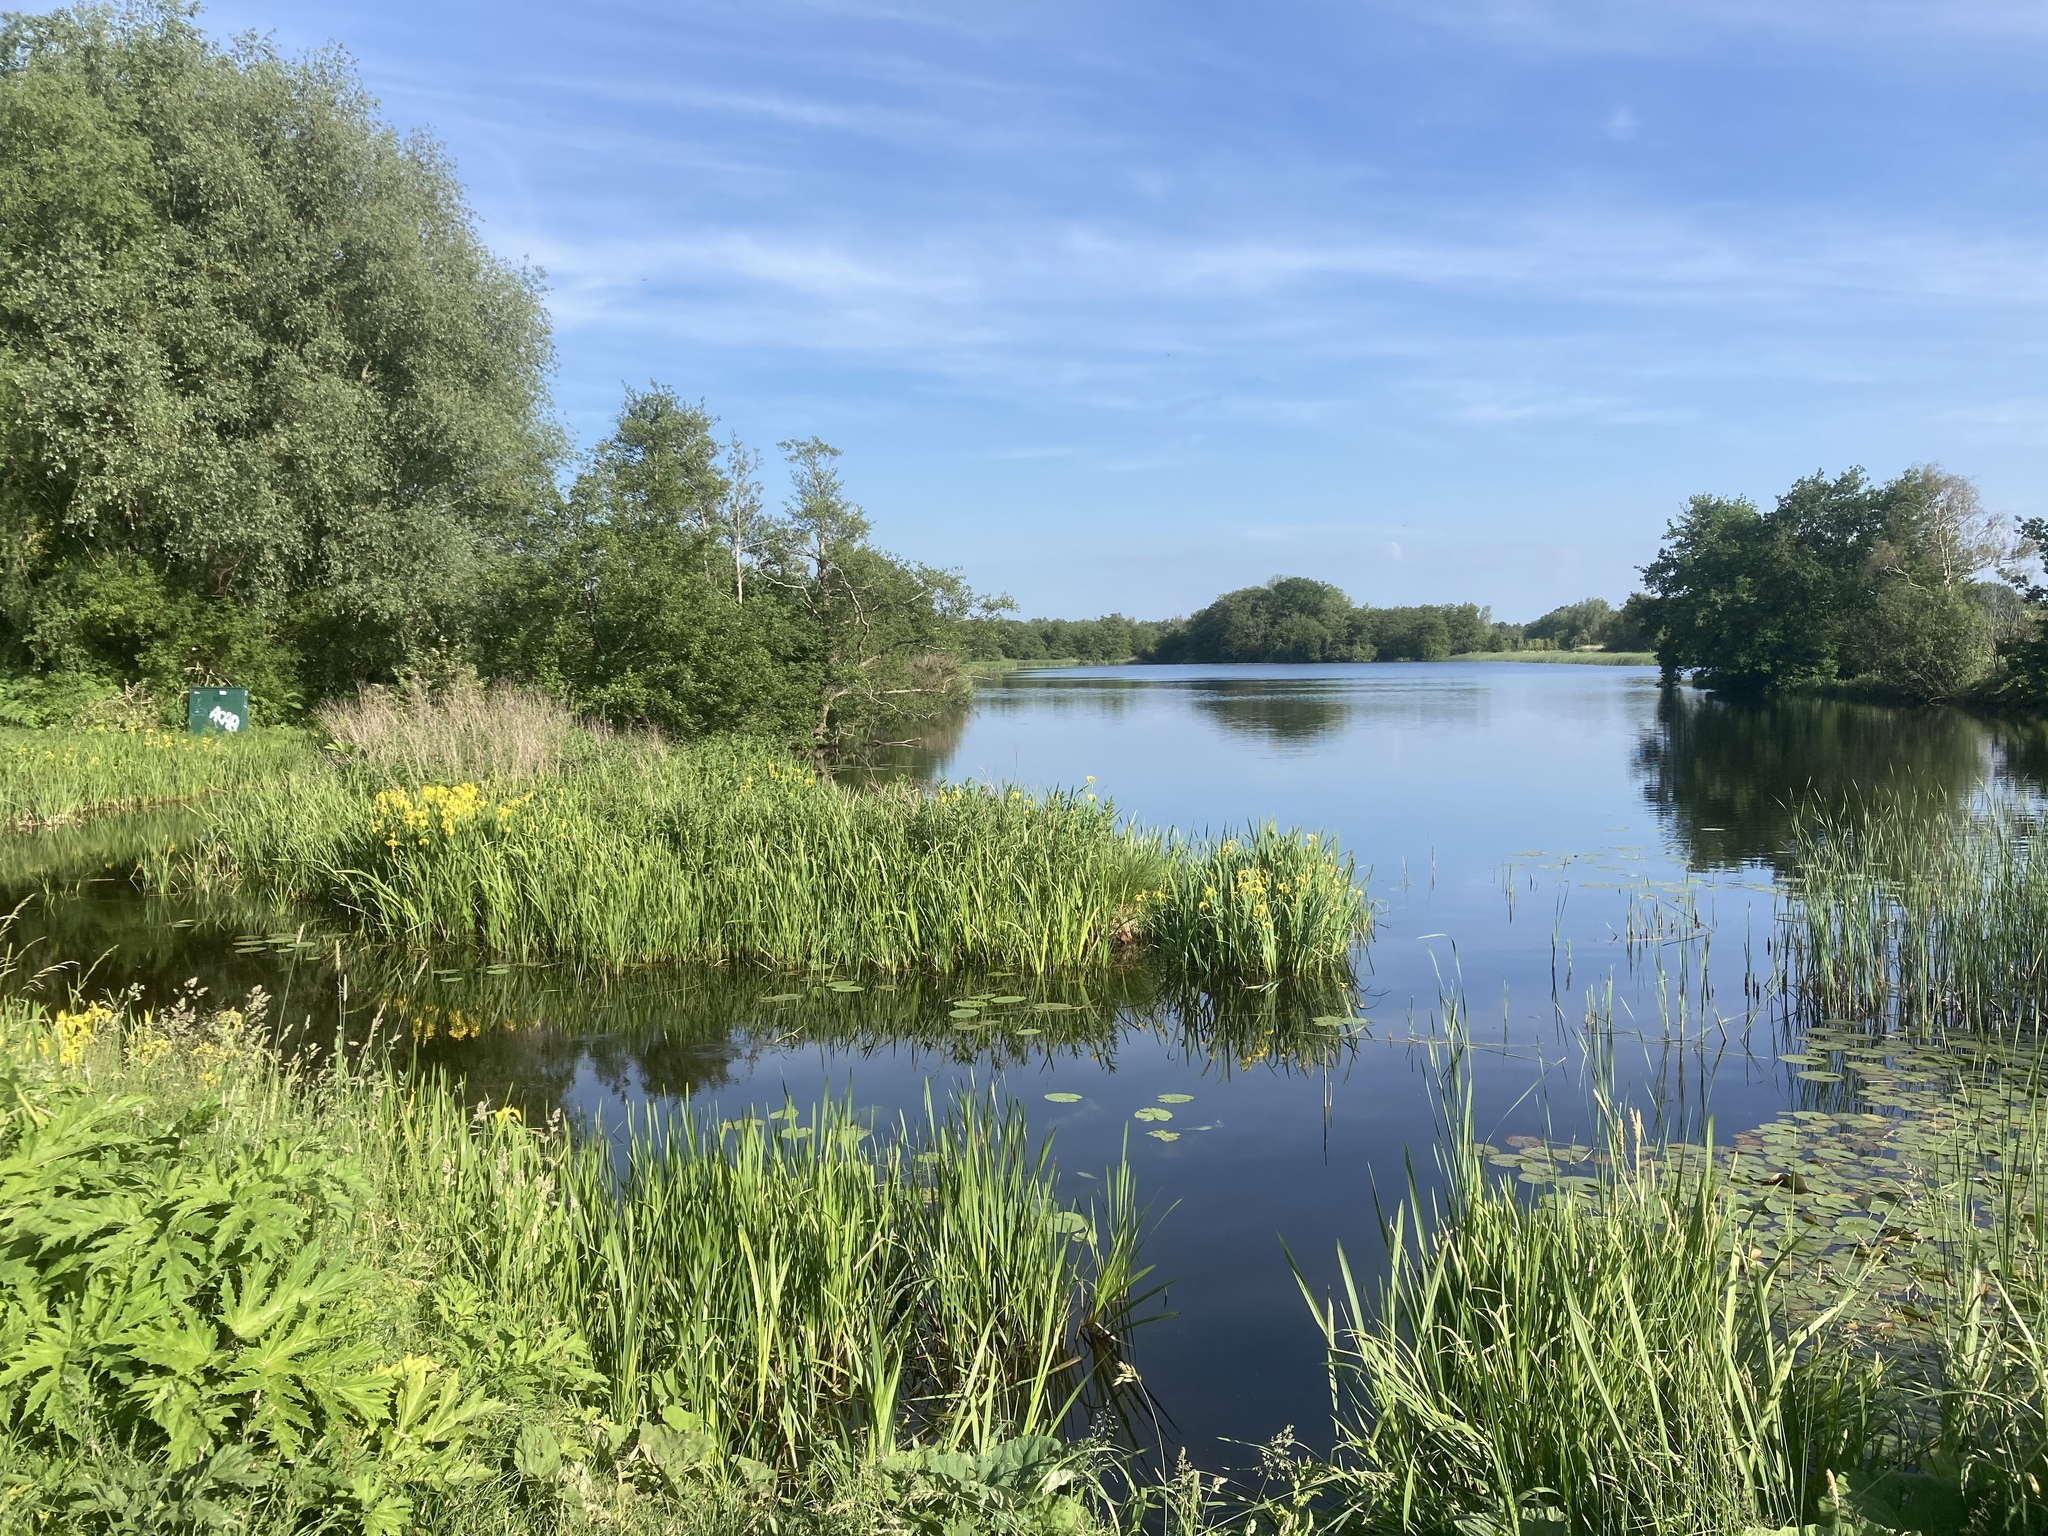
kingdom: Plantae
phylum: Tracheophyta
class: Liliopsida
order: Asparagales
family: Iridaceae
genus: Iris
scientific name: Iris pseudacorus
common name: Yellow flag
